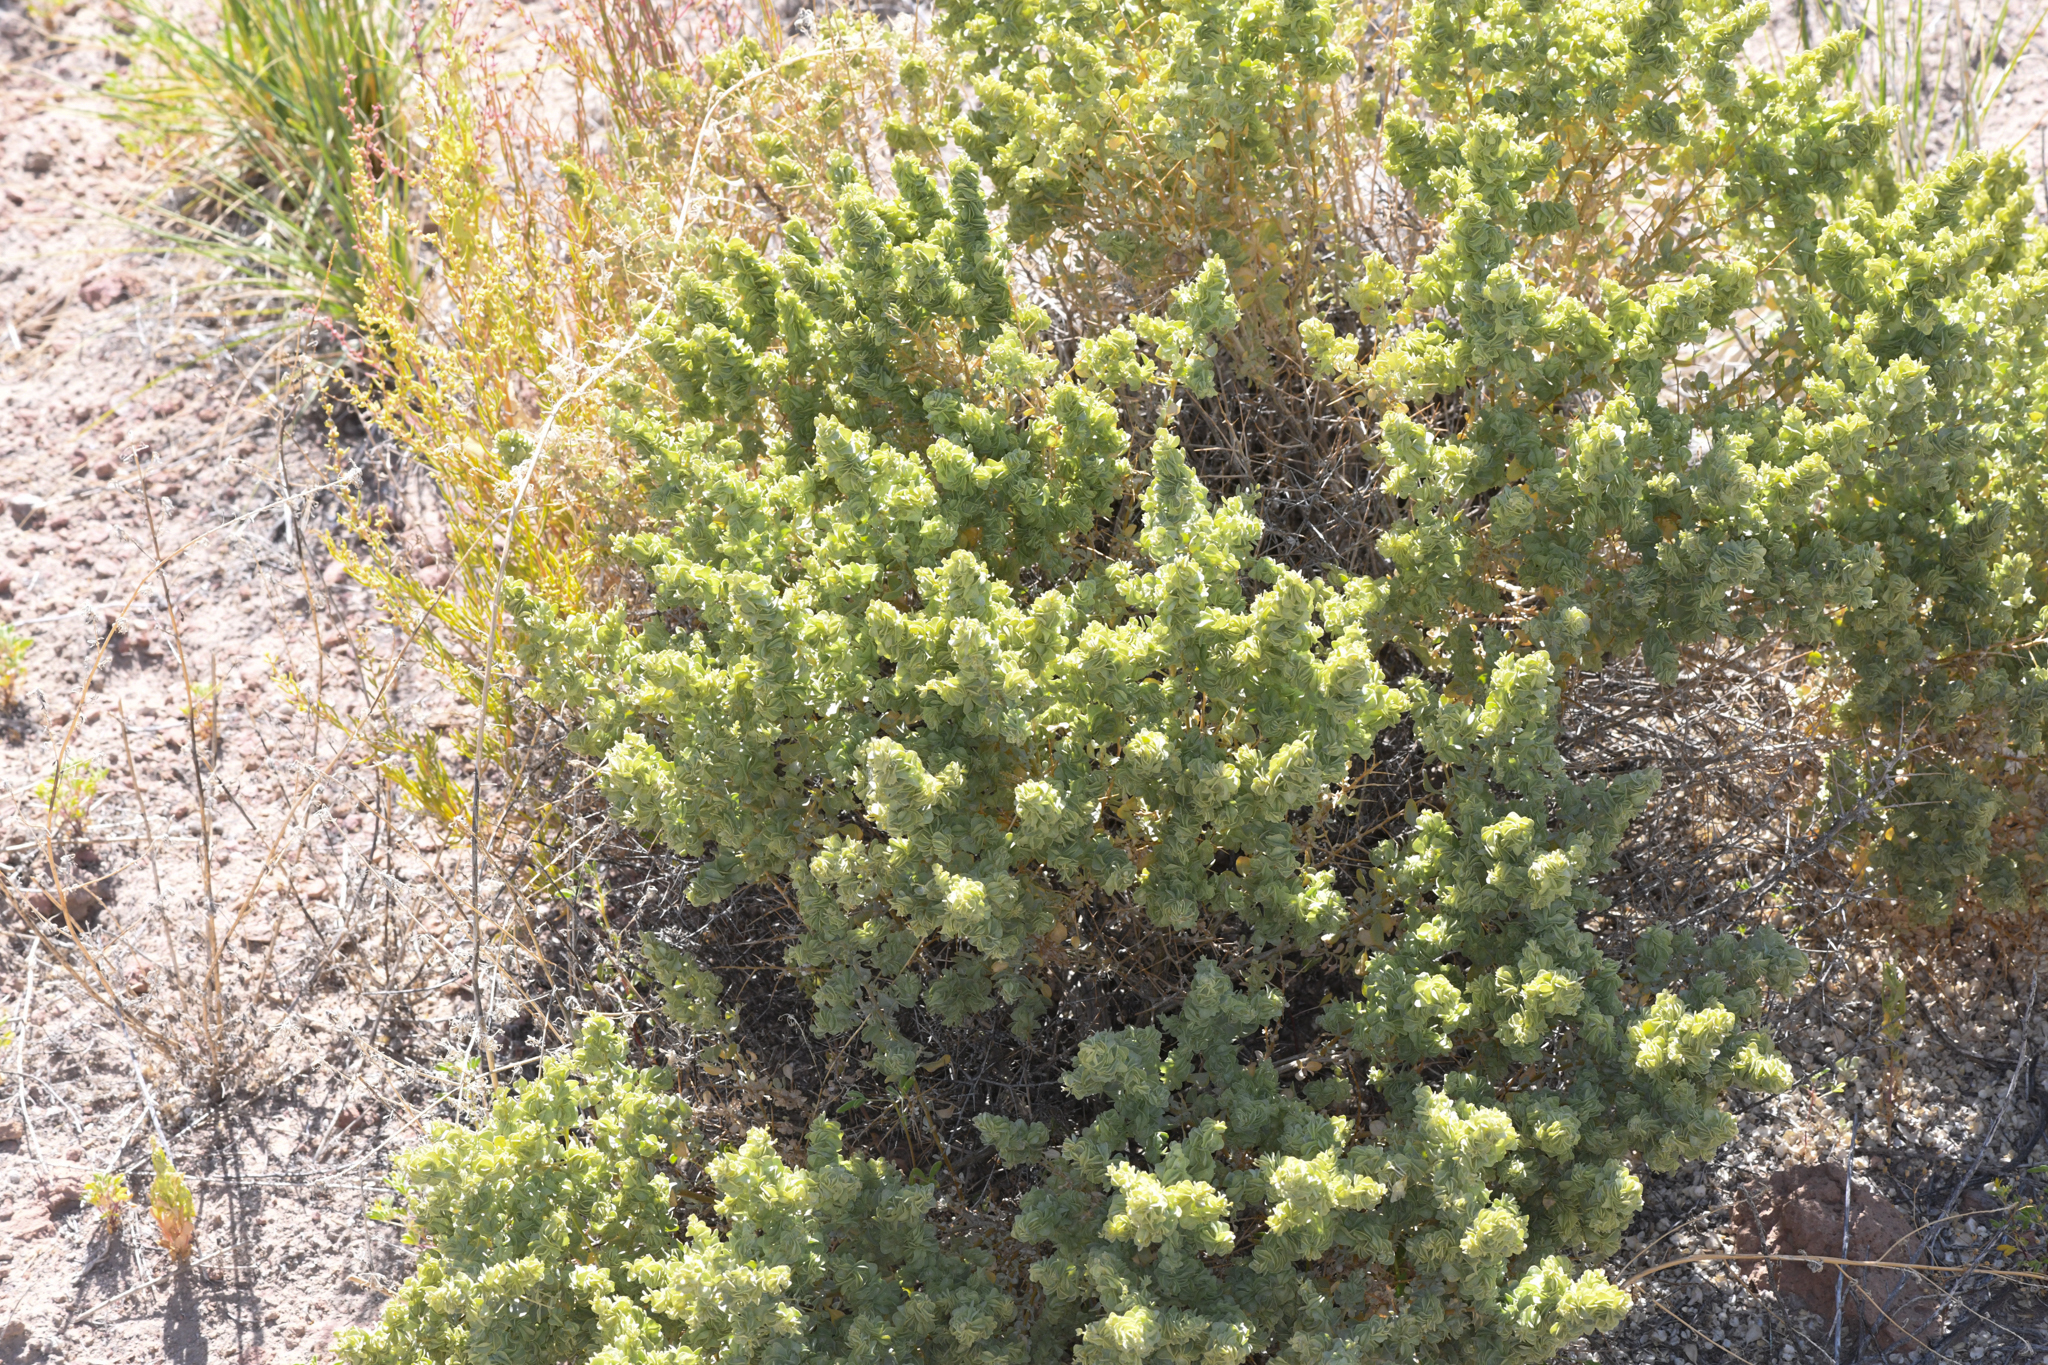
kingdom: Plantae
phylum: Tracheophyta
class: Magnoliopsida
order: Caryophyllales
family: Amaranthaceae
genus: Atriplex
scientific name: Atriplex confertifolia
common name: Shadscale
